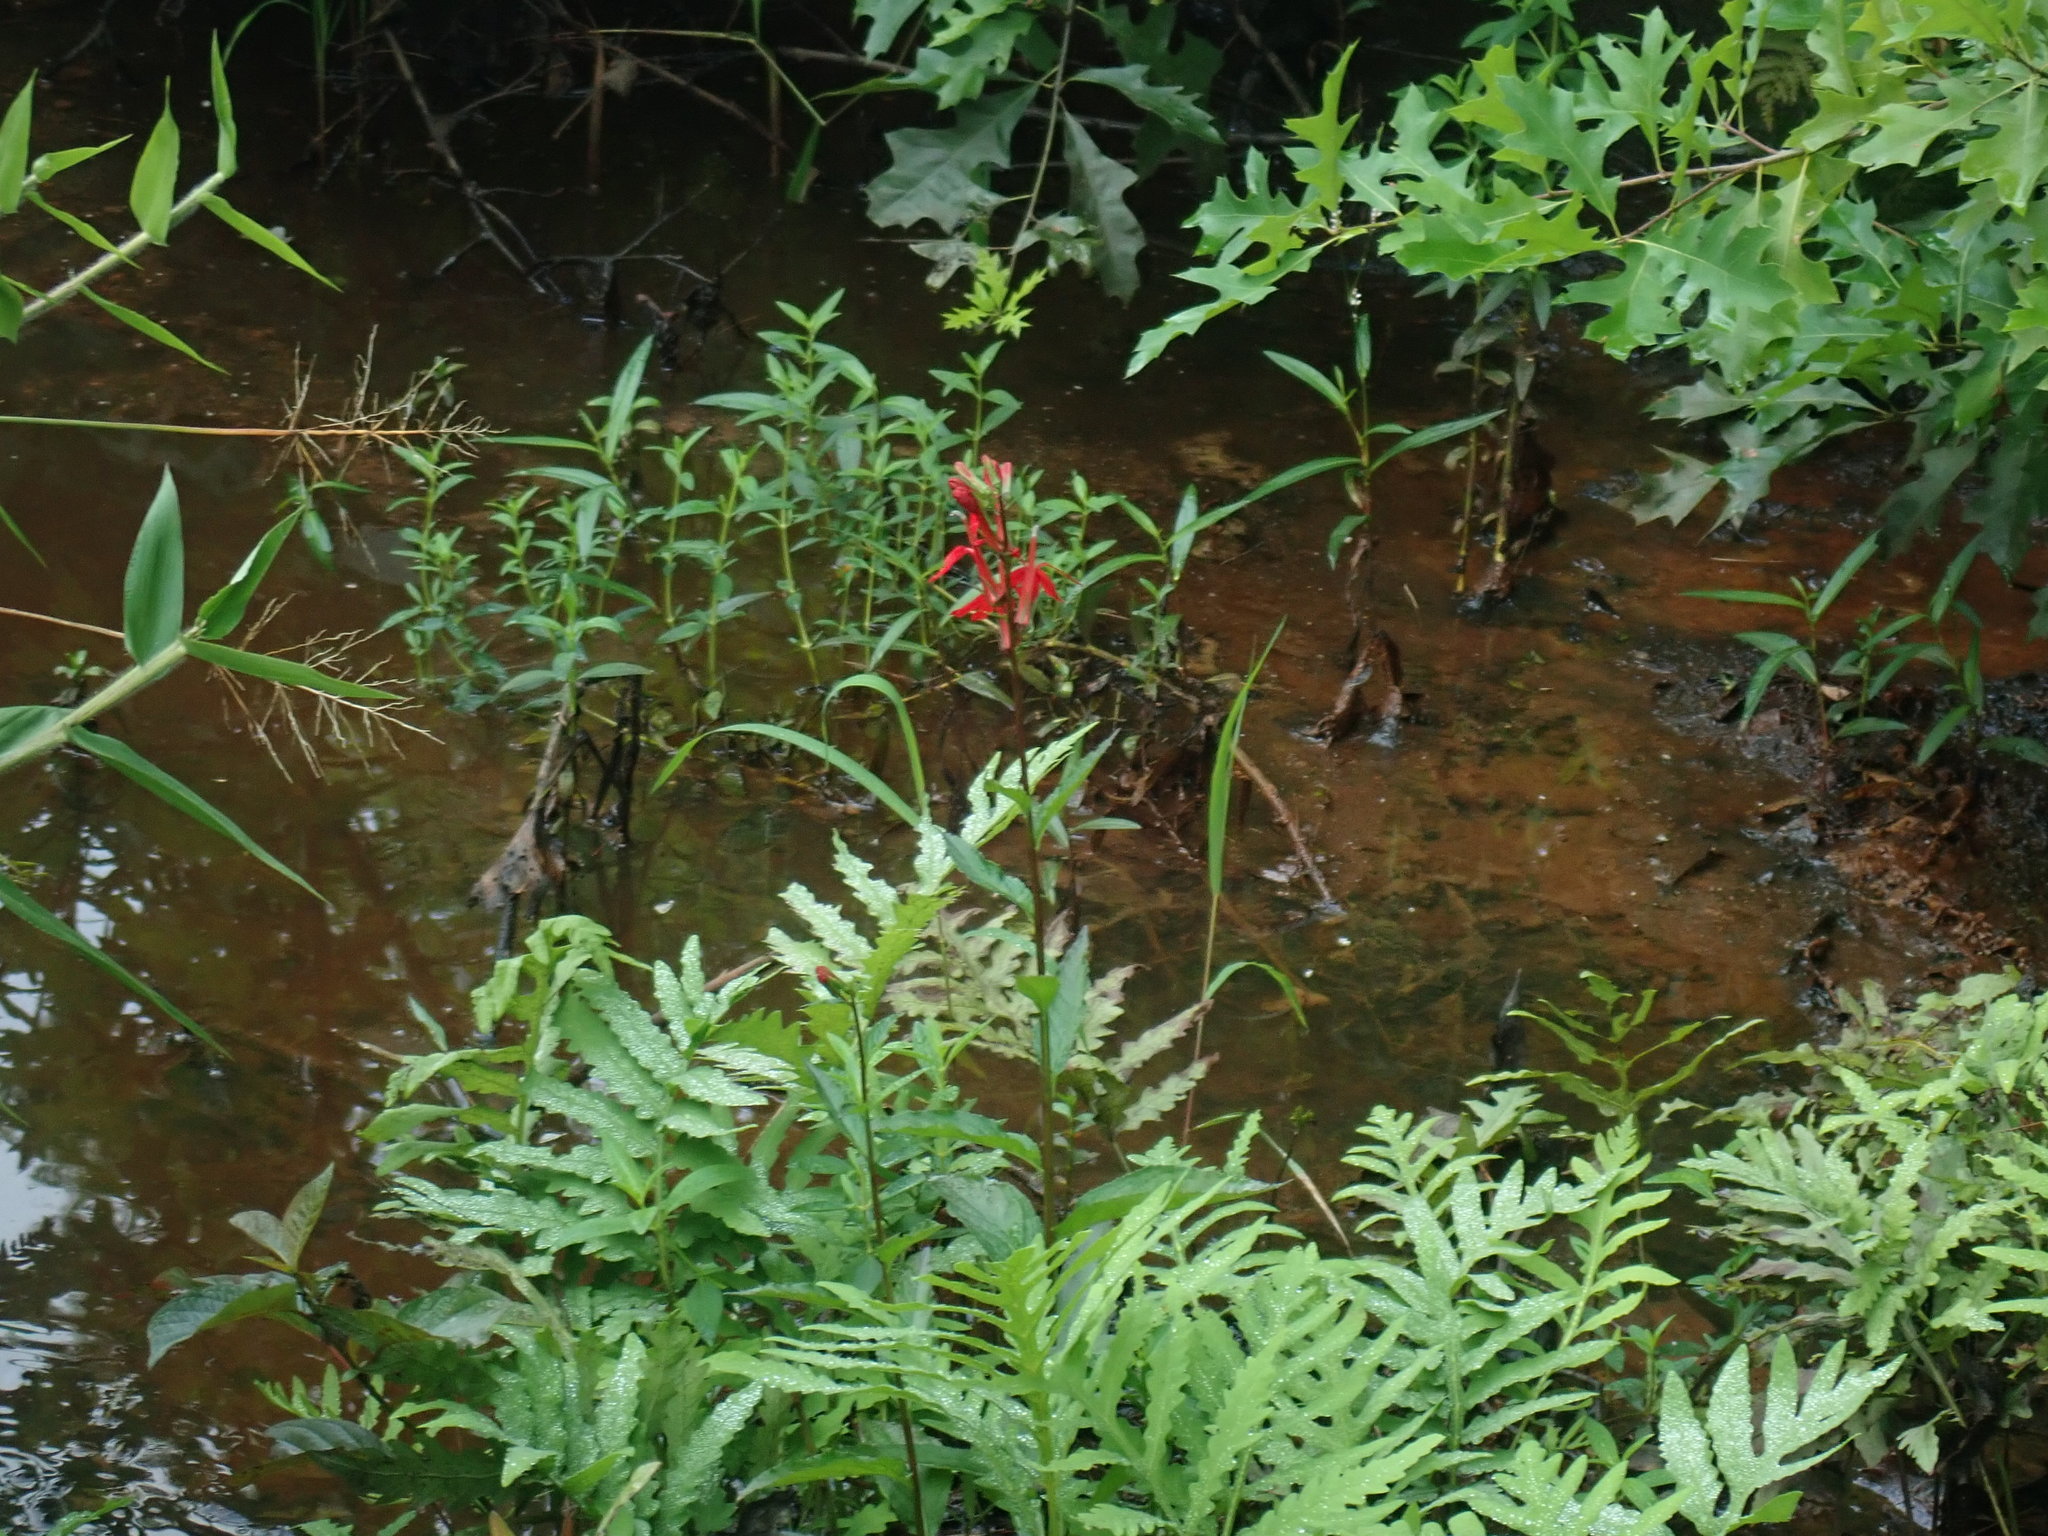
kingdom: Plantae
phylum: Tracheophyta
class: Magnoliopsida
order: Asterales
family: Campanulaceae
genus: Lobelia
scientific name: Lobelia cardinalis
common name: Cardinal flower
